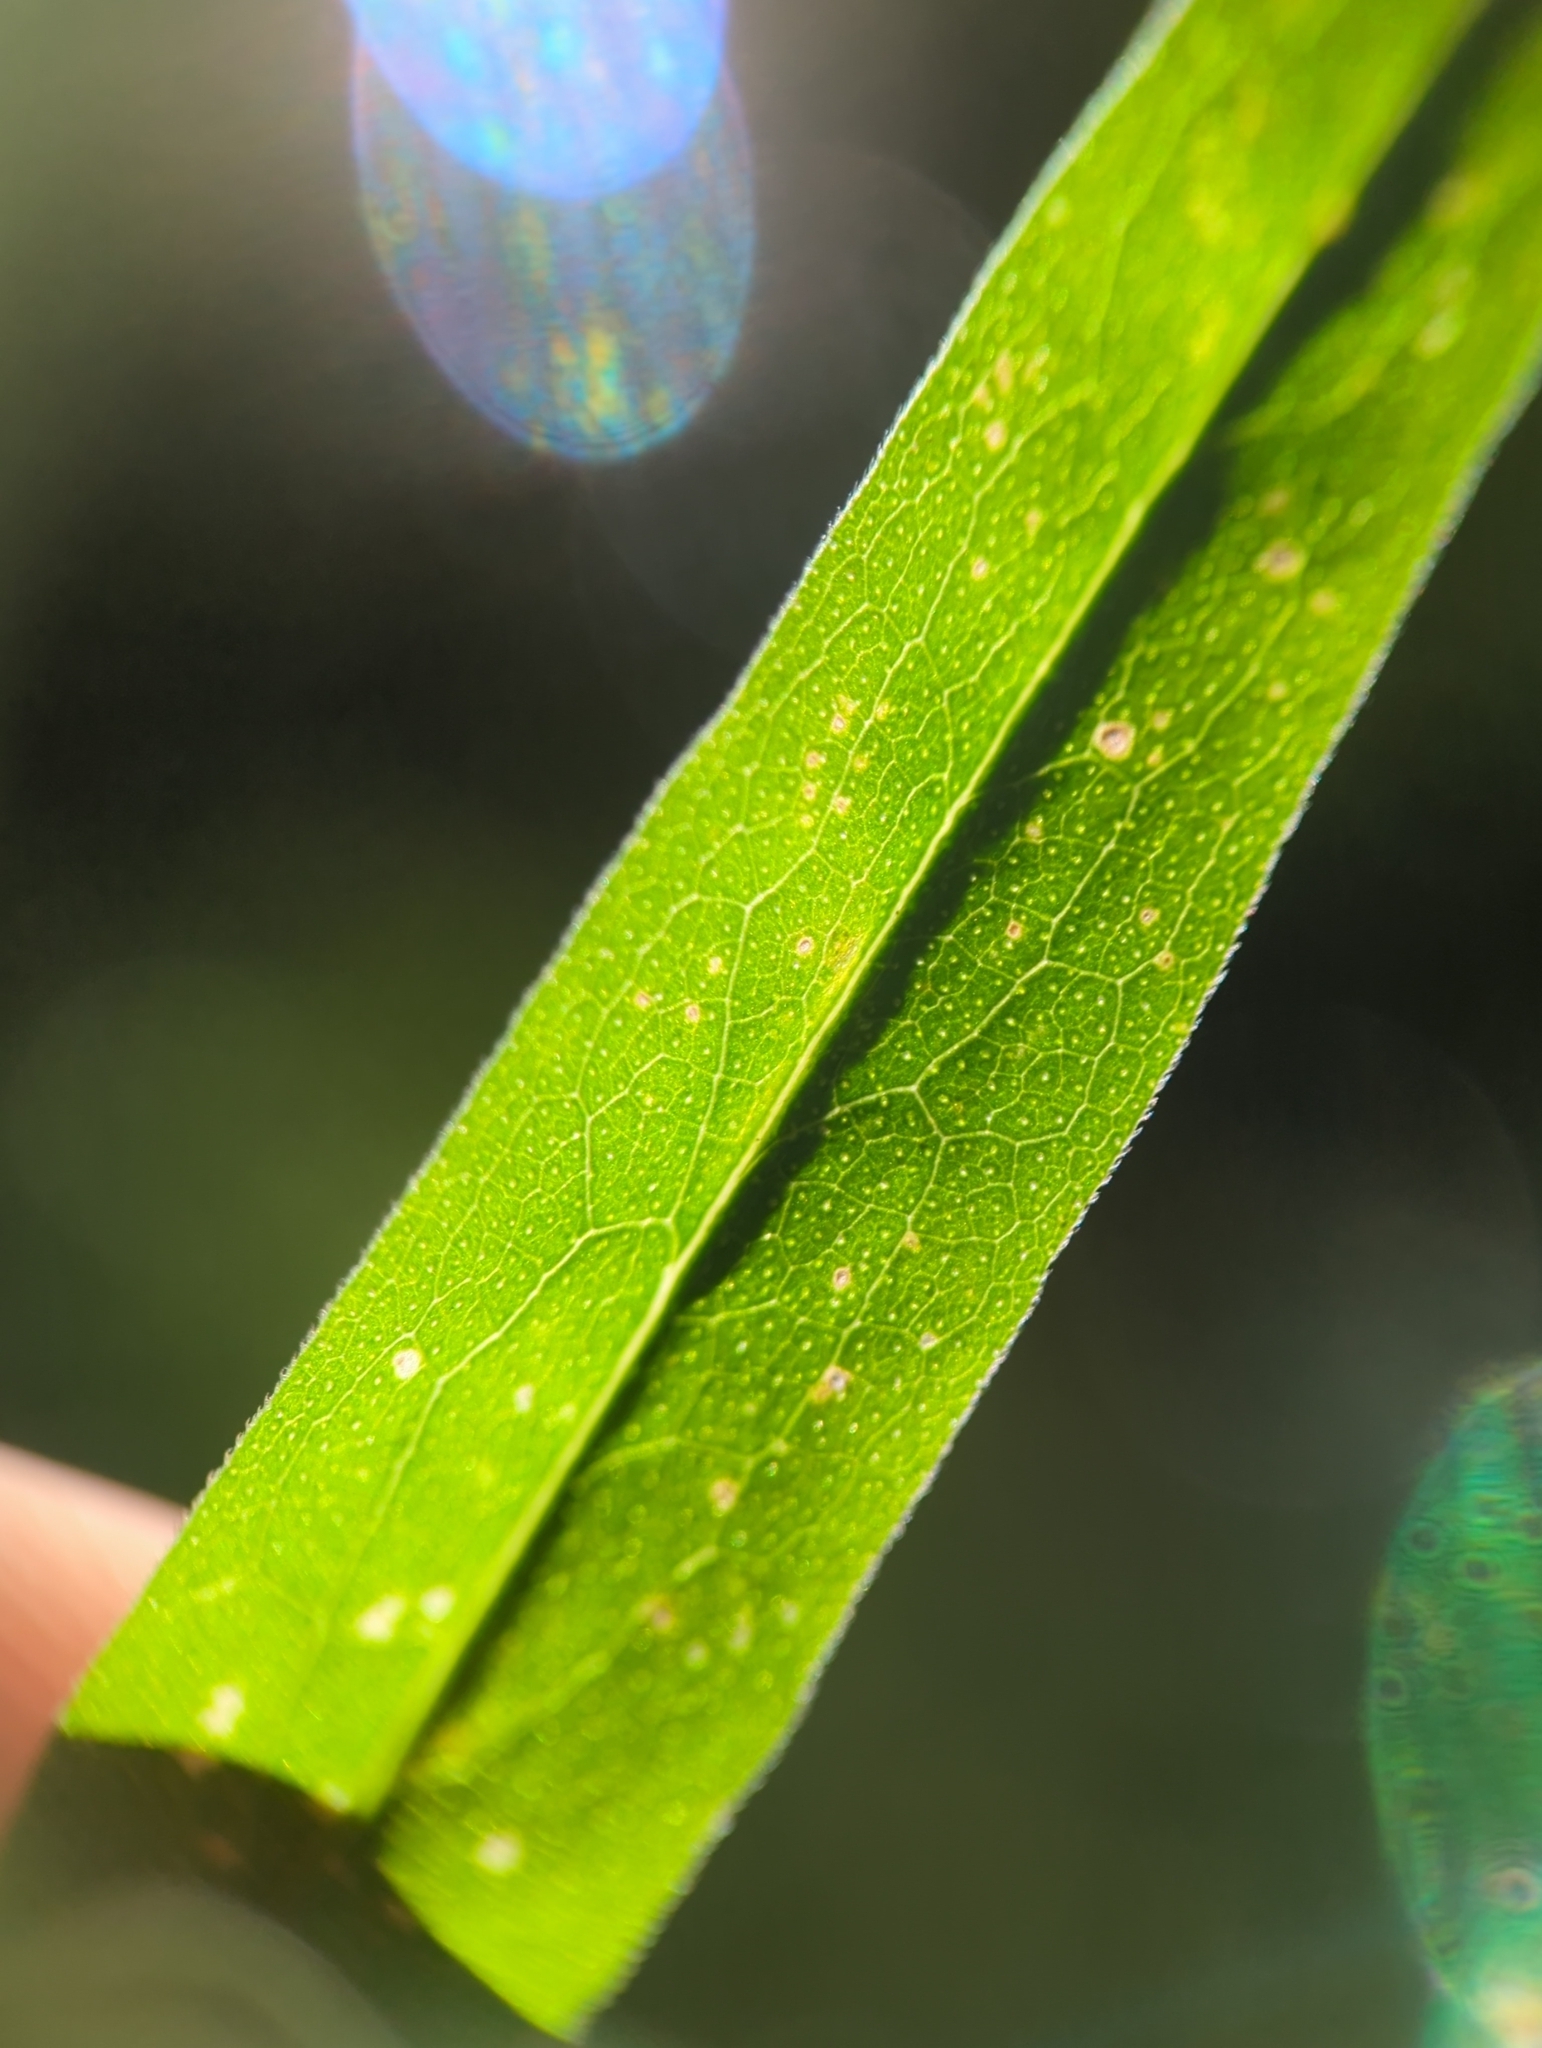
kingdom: Plantae
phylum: Tracheophyta
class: Magnoliopsida
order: Asterales
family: Asteraceae
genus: Solidago
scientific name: Solidago odora
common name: Anise-scented goldenrod
